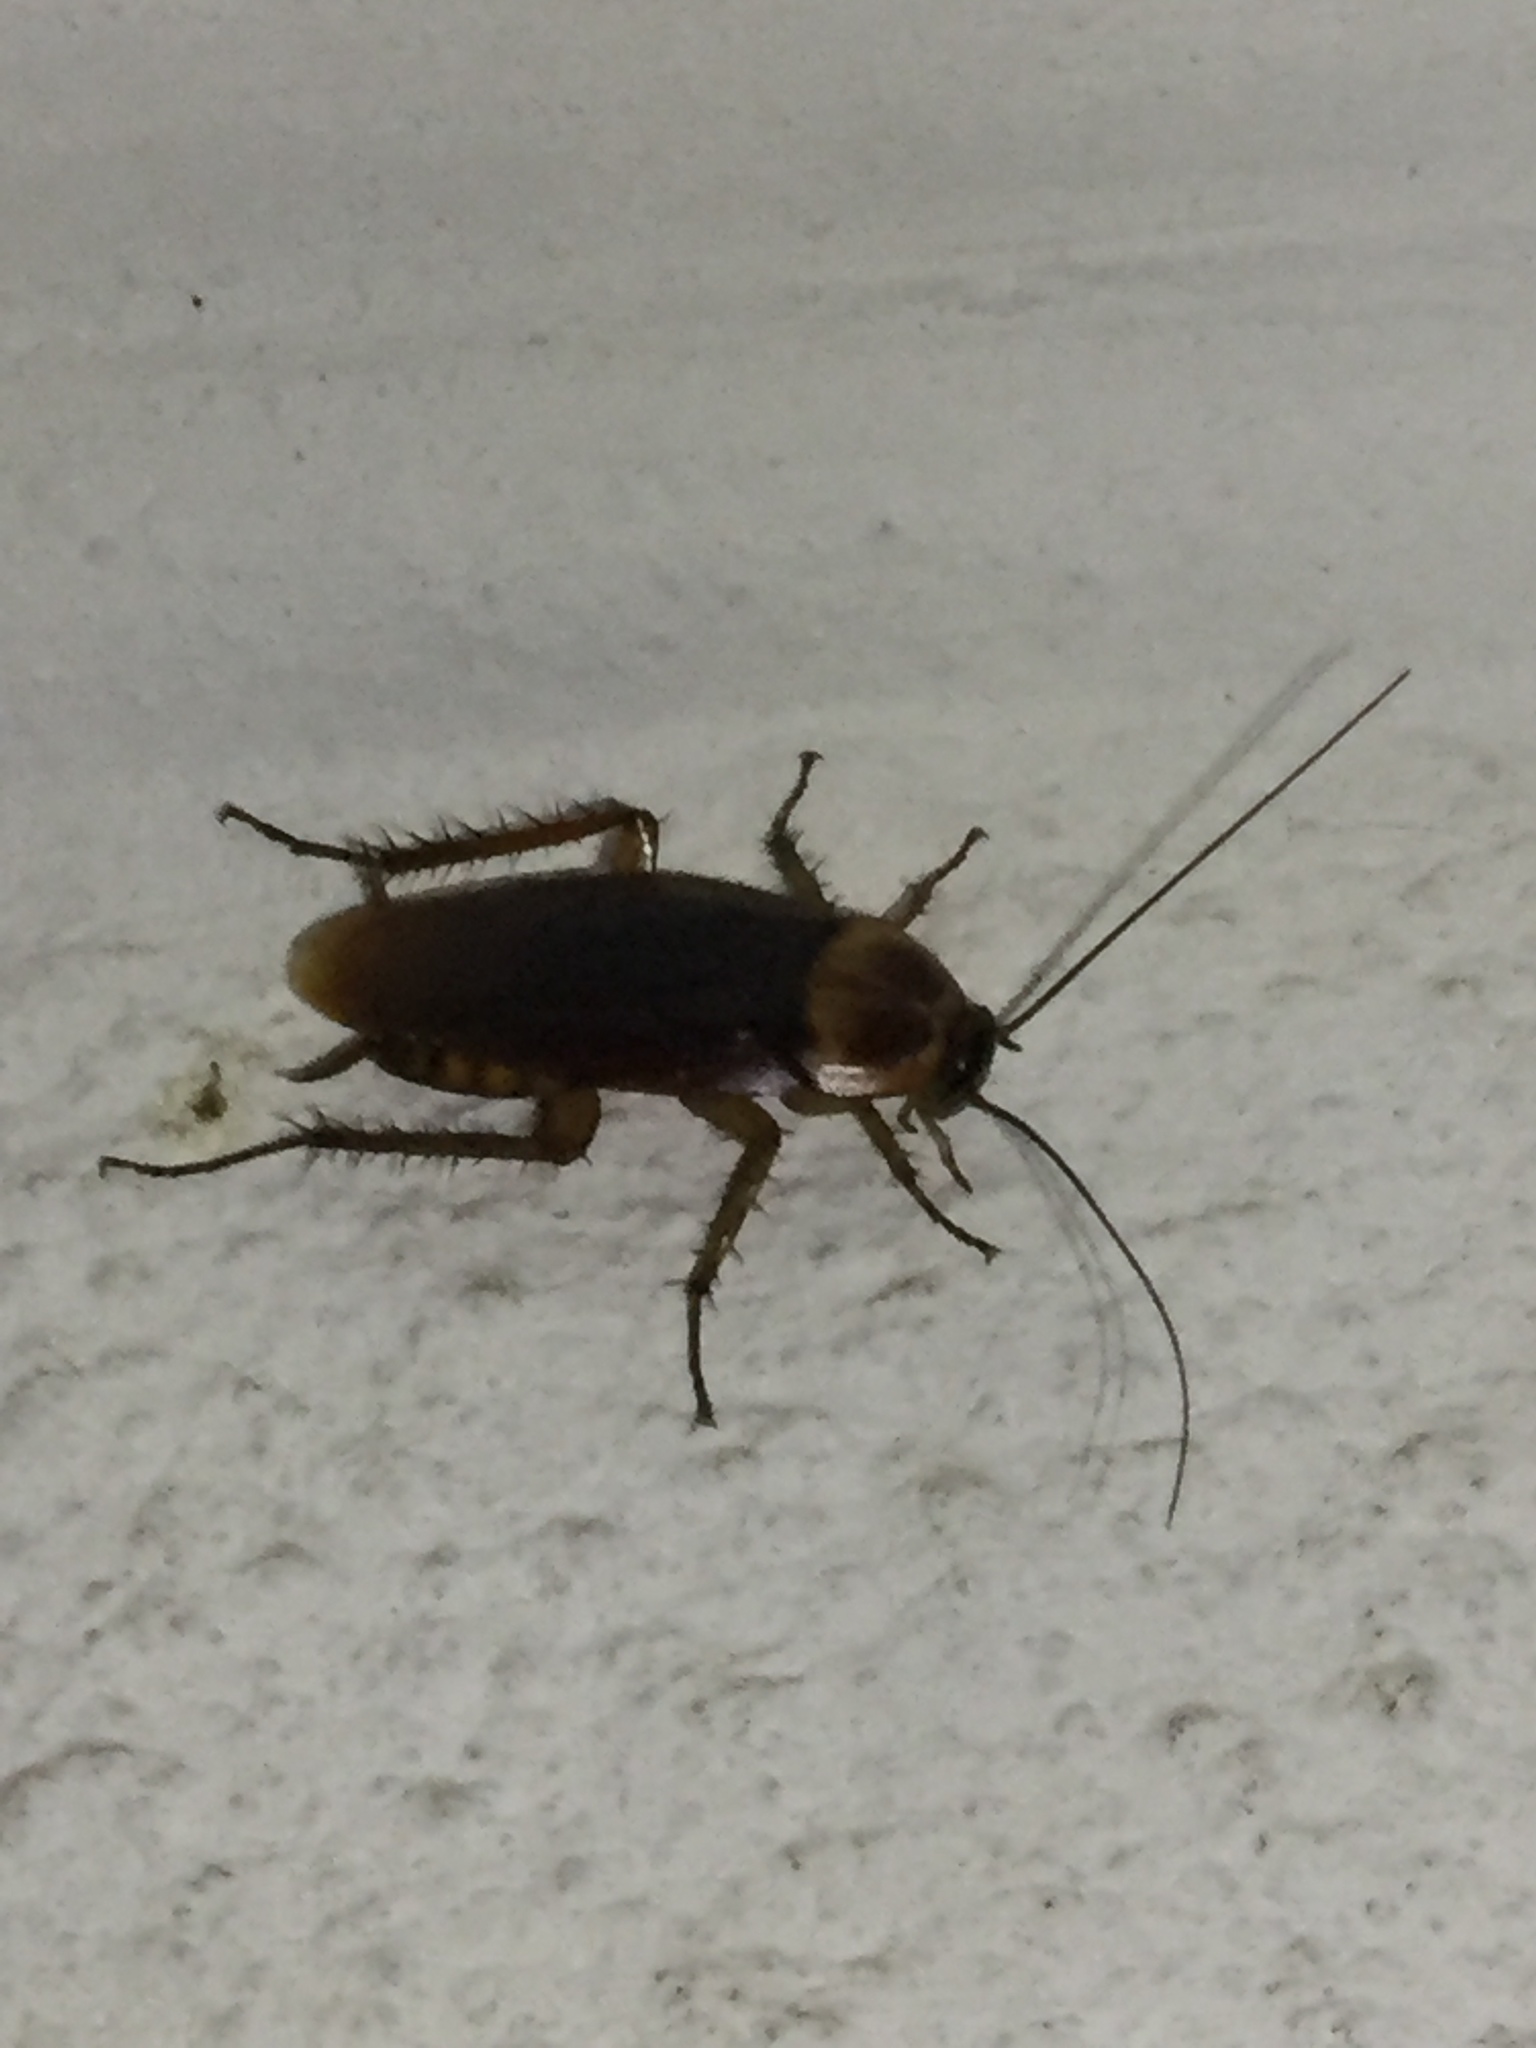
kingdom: Animalia
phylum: Arthropoda
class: Insecta
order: Blattodea
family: Blattidae
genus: Periplaneta
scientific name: Periplaneta americana
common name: American cockroach
